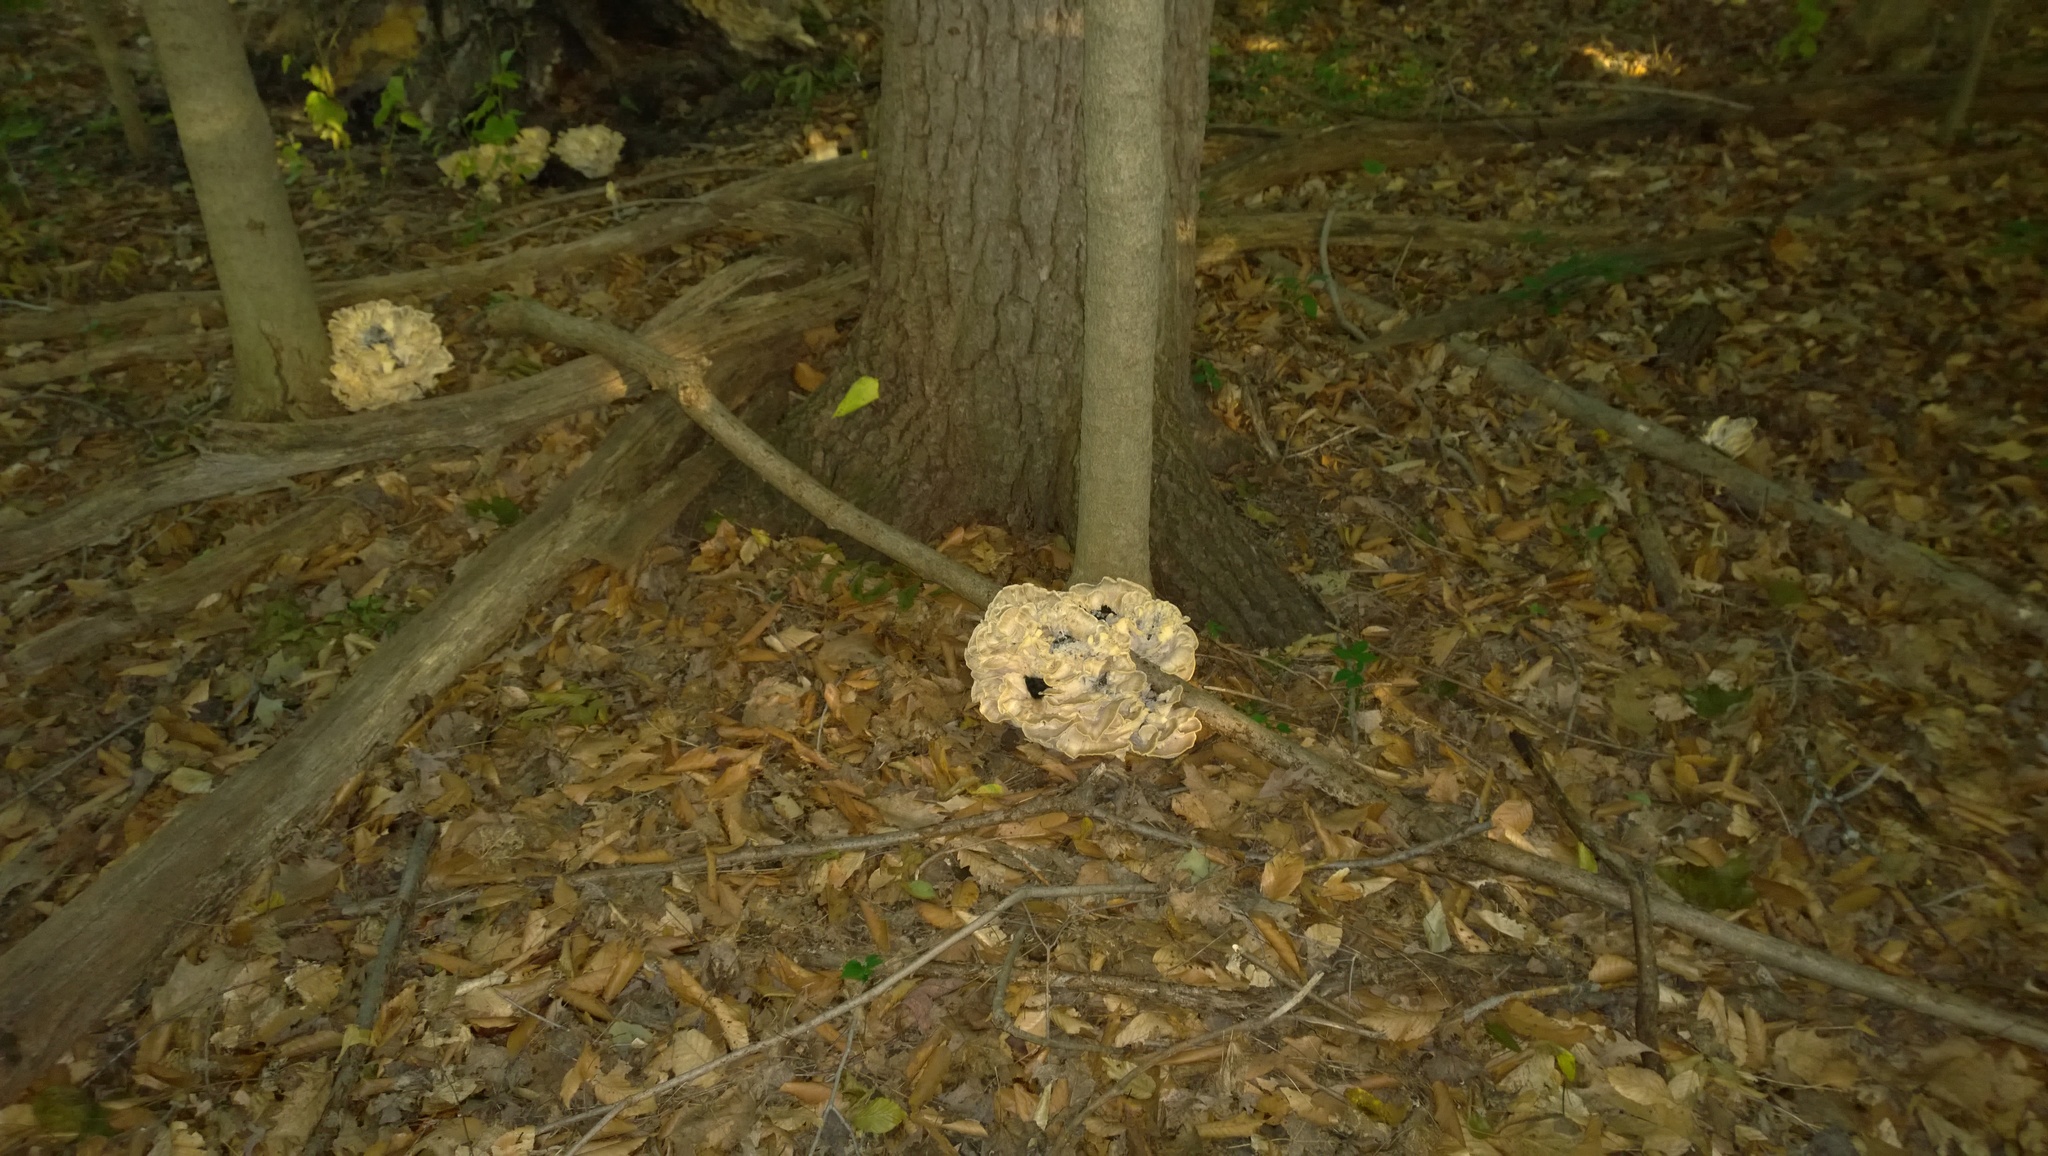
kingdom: Fungi
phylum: Basidiomycota
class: Agaricomycetes
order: Polyporales
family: Meripilaceae
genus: Meripilus
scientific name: Meripilus sumstinei
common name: Black-staining polypore
